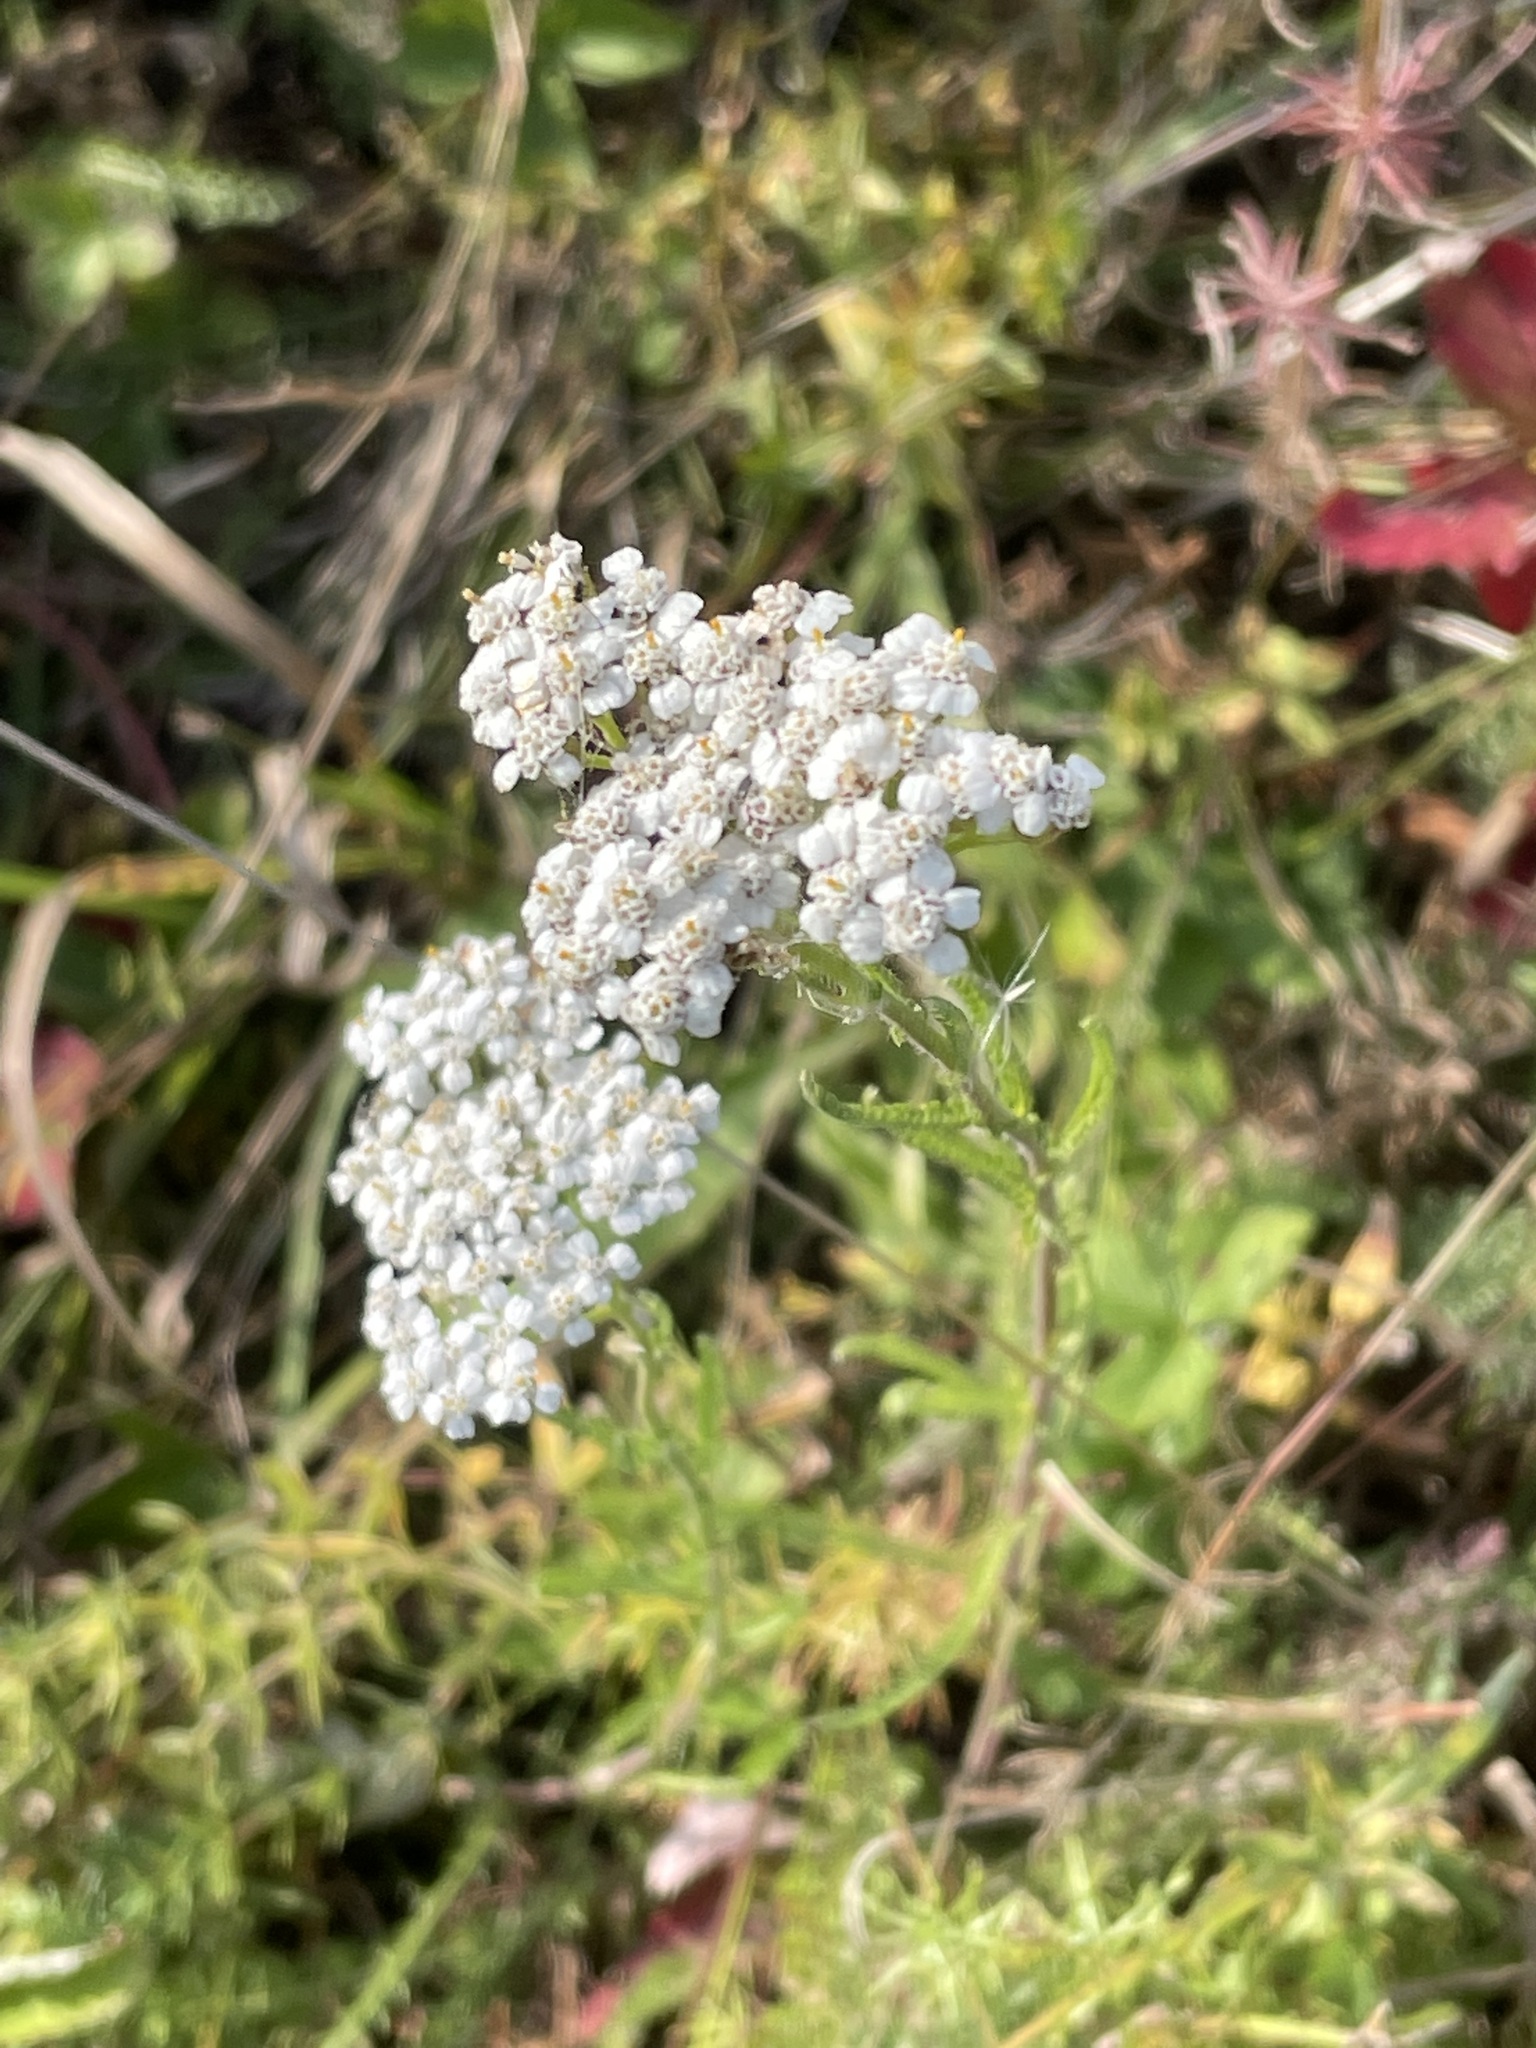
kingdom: Plantae
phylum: Tracheophyta
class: Magnoliopsida
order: Asterales
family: Asteraceae
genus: Achillea
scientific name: Achillea millefolium
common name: Yarrow
